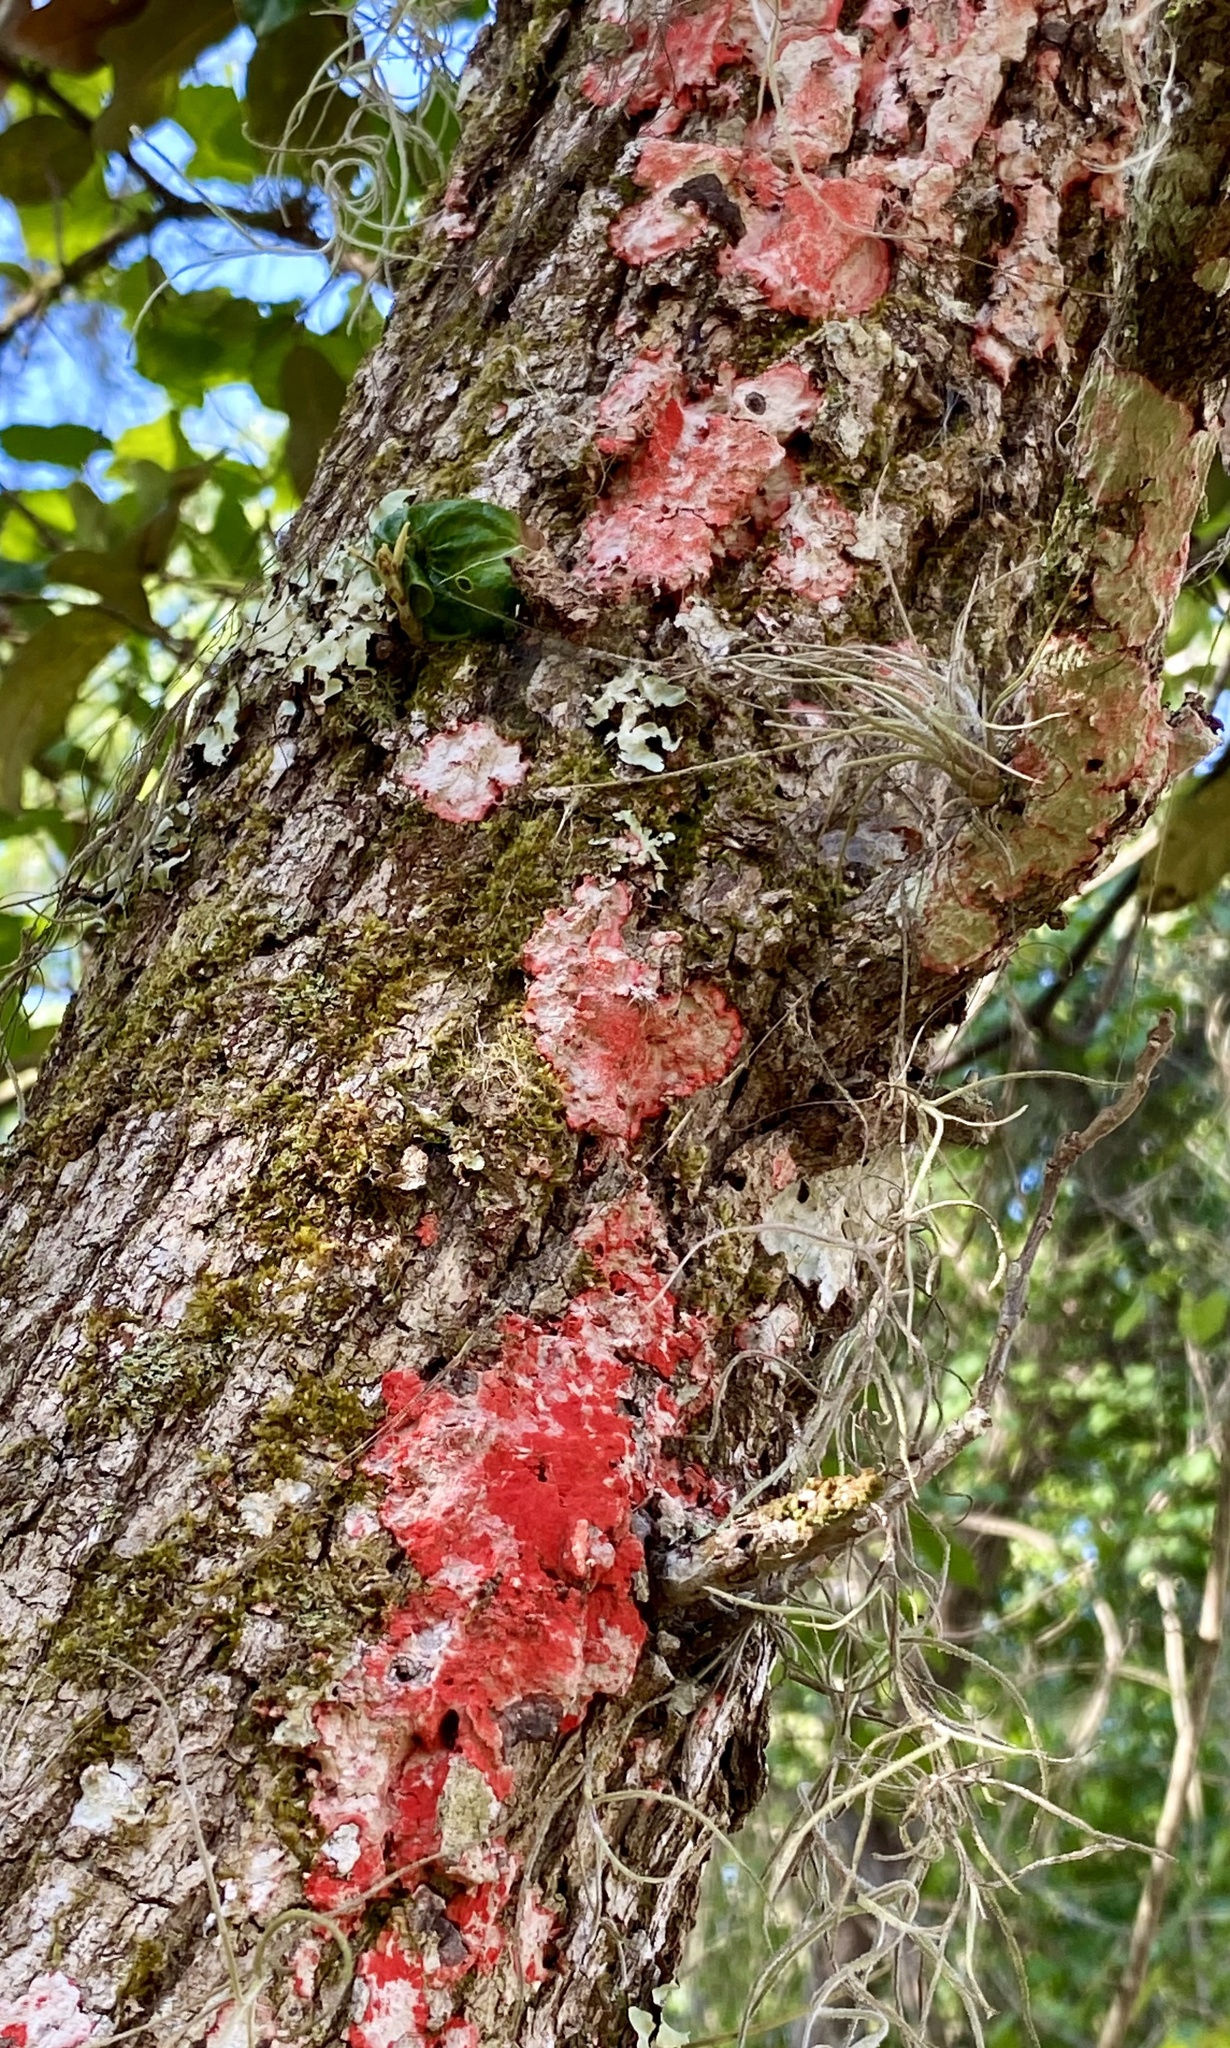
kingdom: Fungi
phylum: Ascomycota
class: Arthoniomycetes
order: Arthoniales
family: Arthoniaceae
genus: Herpothallon
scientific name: Herpothallon rubrocinctum
